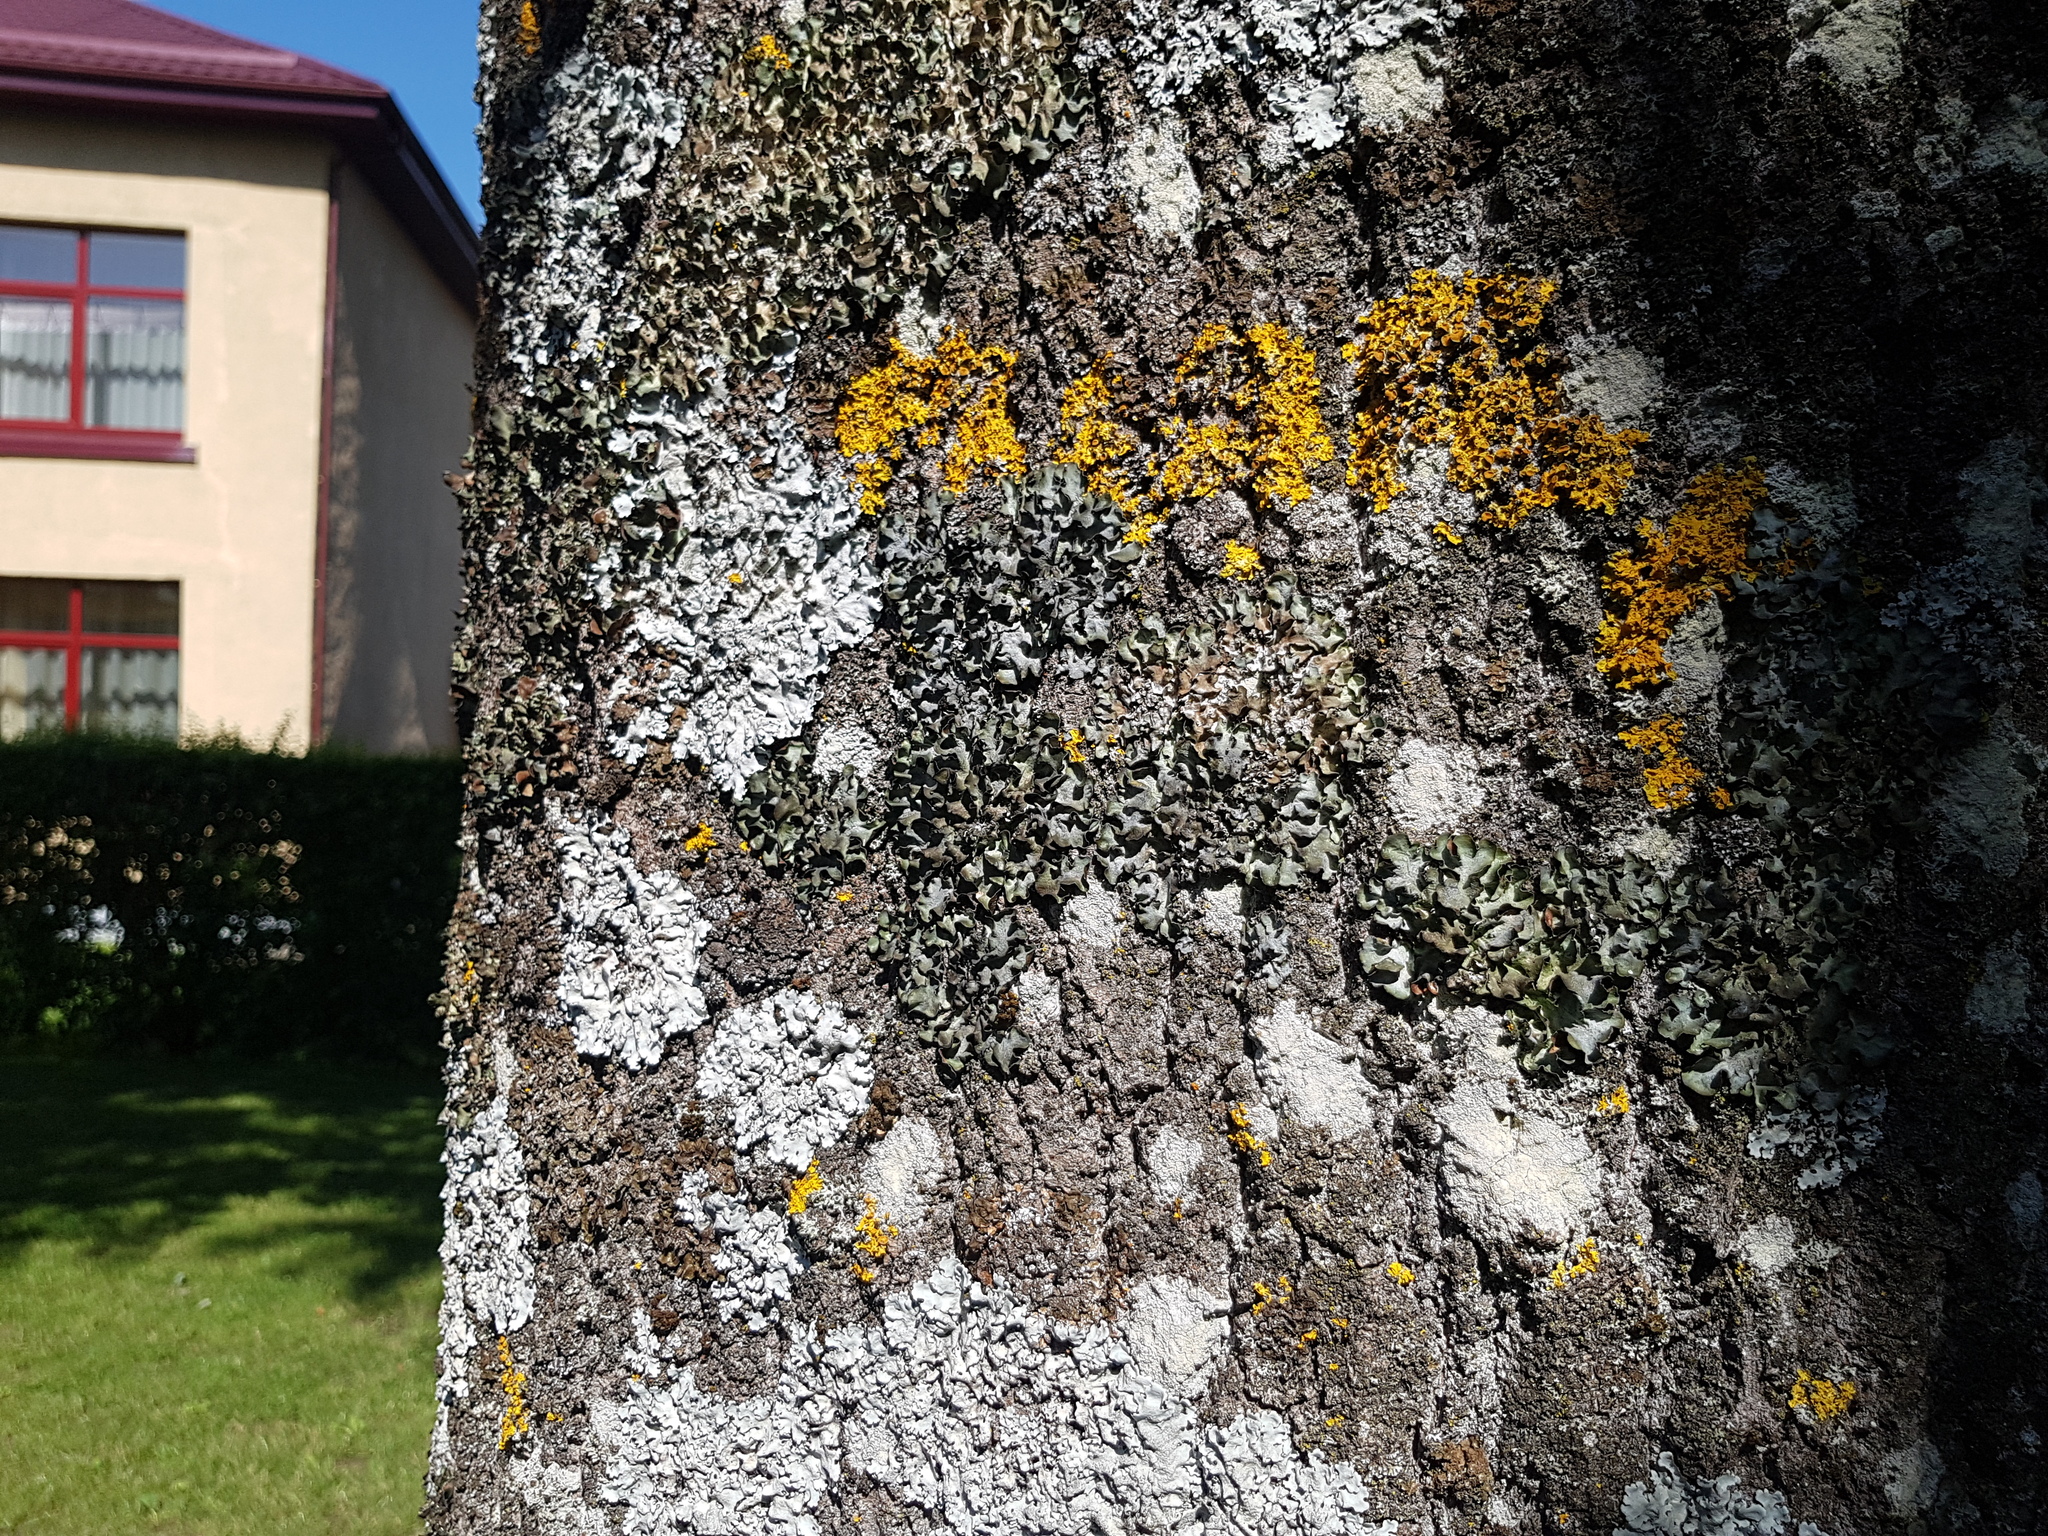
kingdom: Fungi
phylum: Ascomycota
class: Lecanoromycetes
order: Lecanorales
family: Parmeliaceae
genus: Pleurosticta
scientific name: Pleurosticta acetabulum
